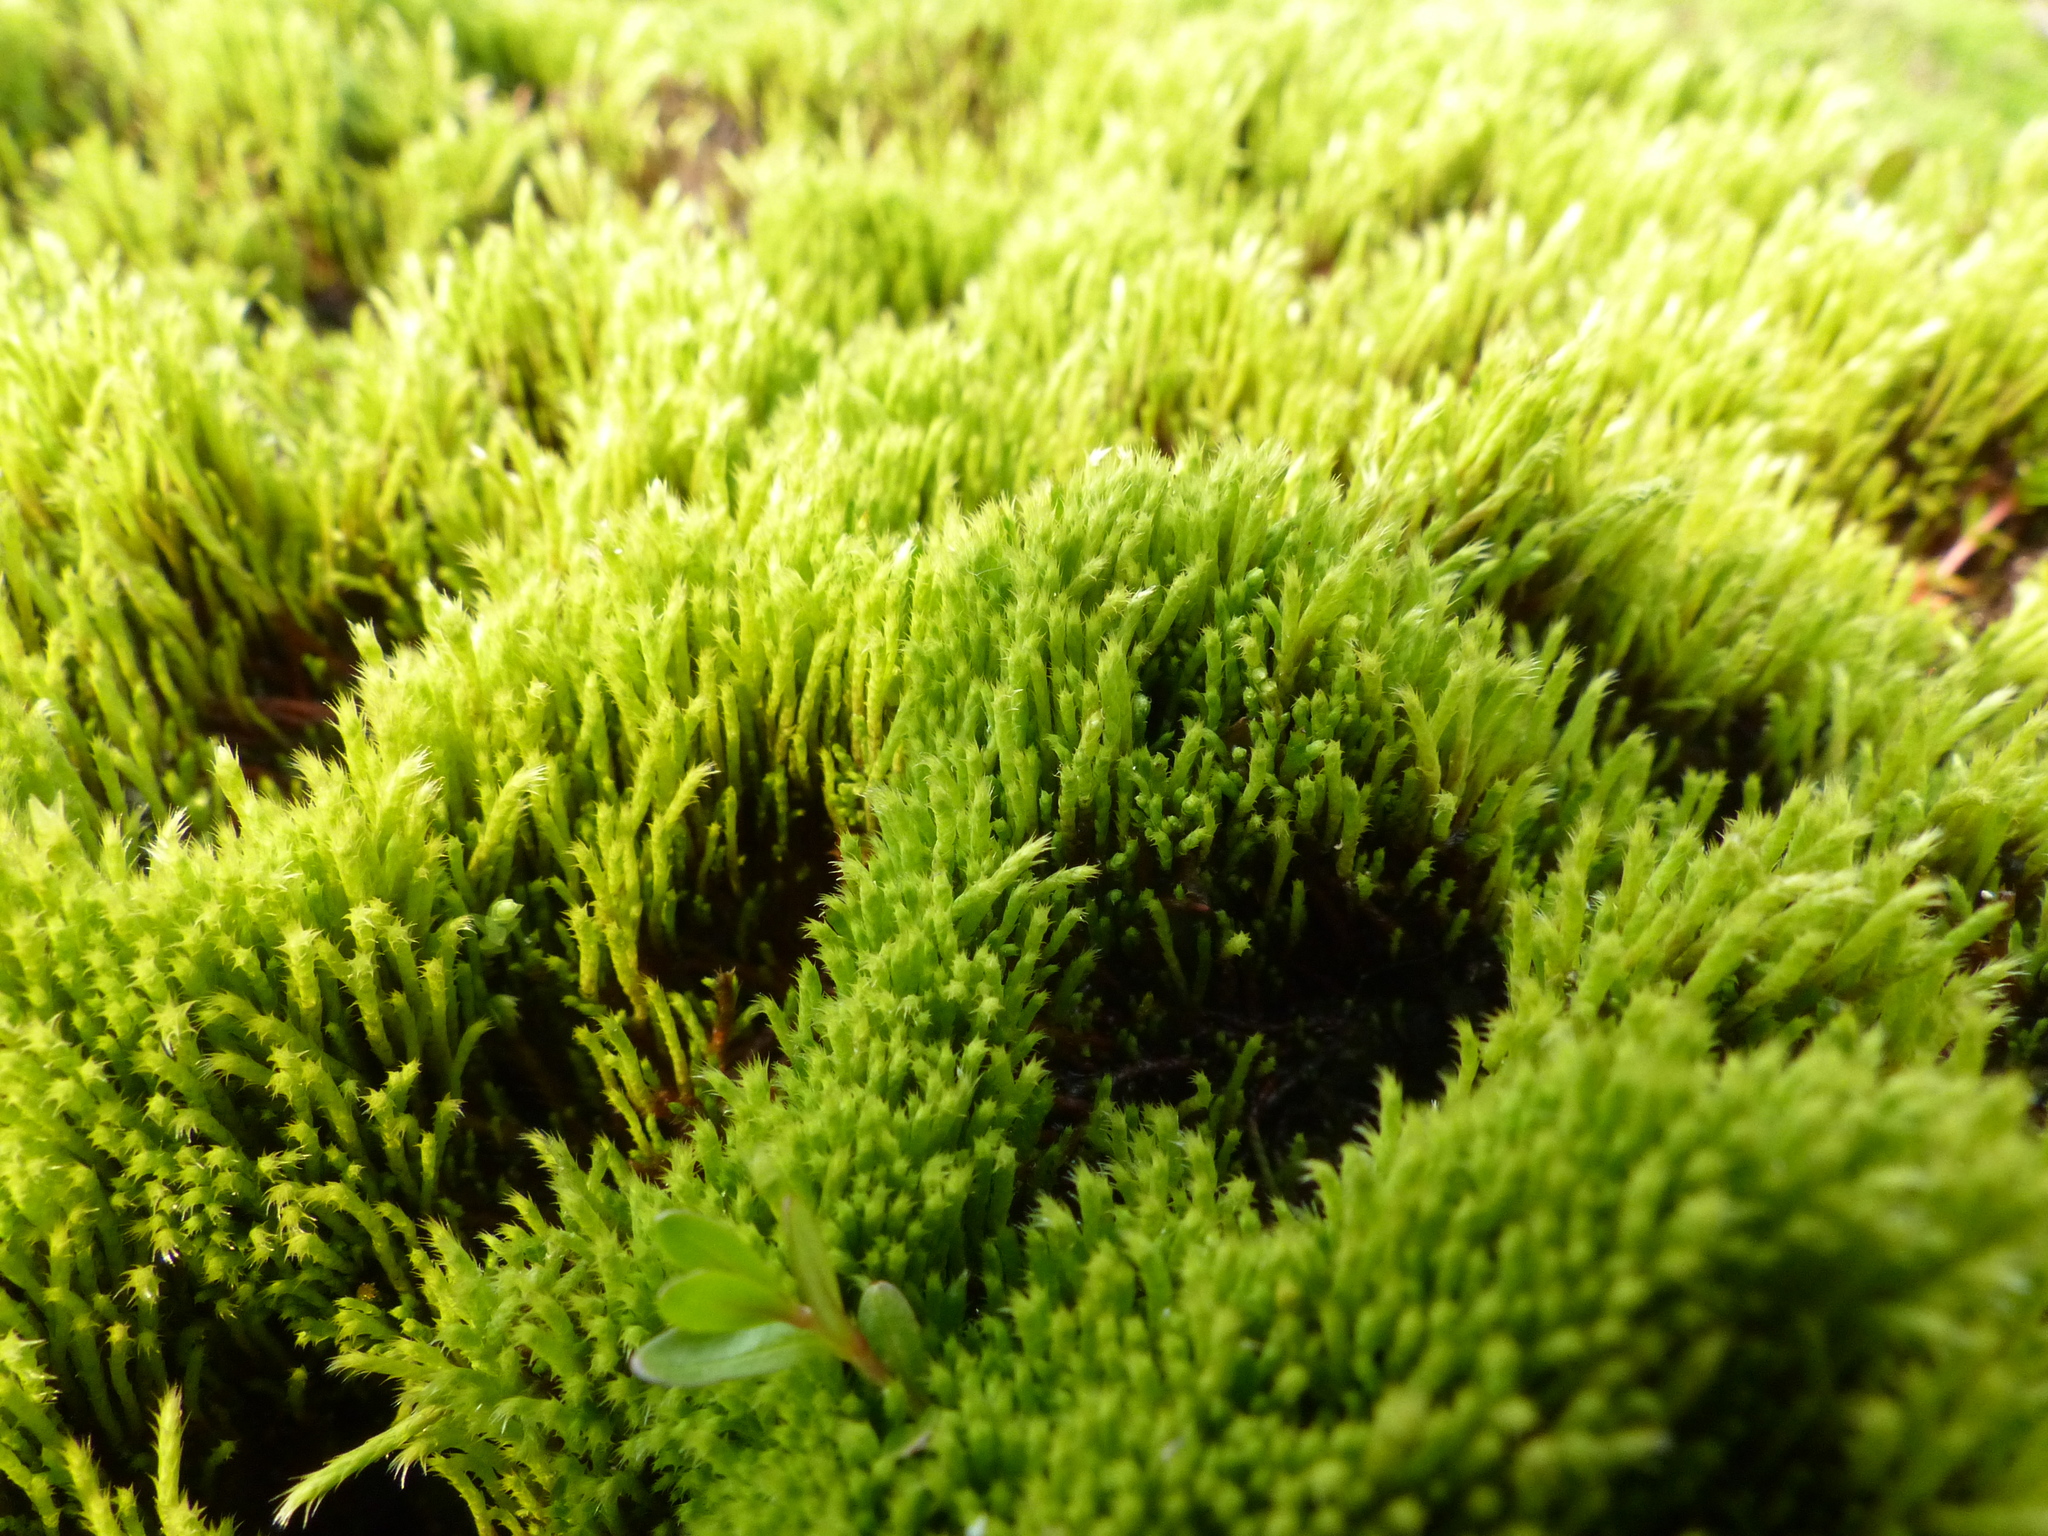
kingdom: Plantae
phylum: Bryophyta
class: Bryopsida
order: Bartramiales
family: Bartramiaceae
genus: Philonotis
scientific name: Philonotis fontana
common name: Fountain apple-moss
